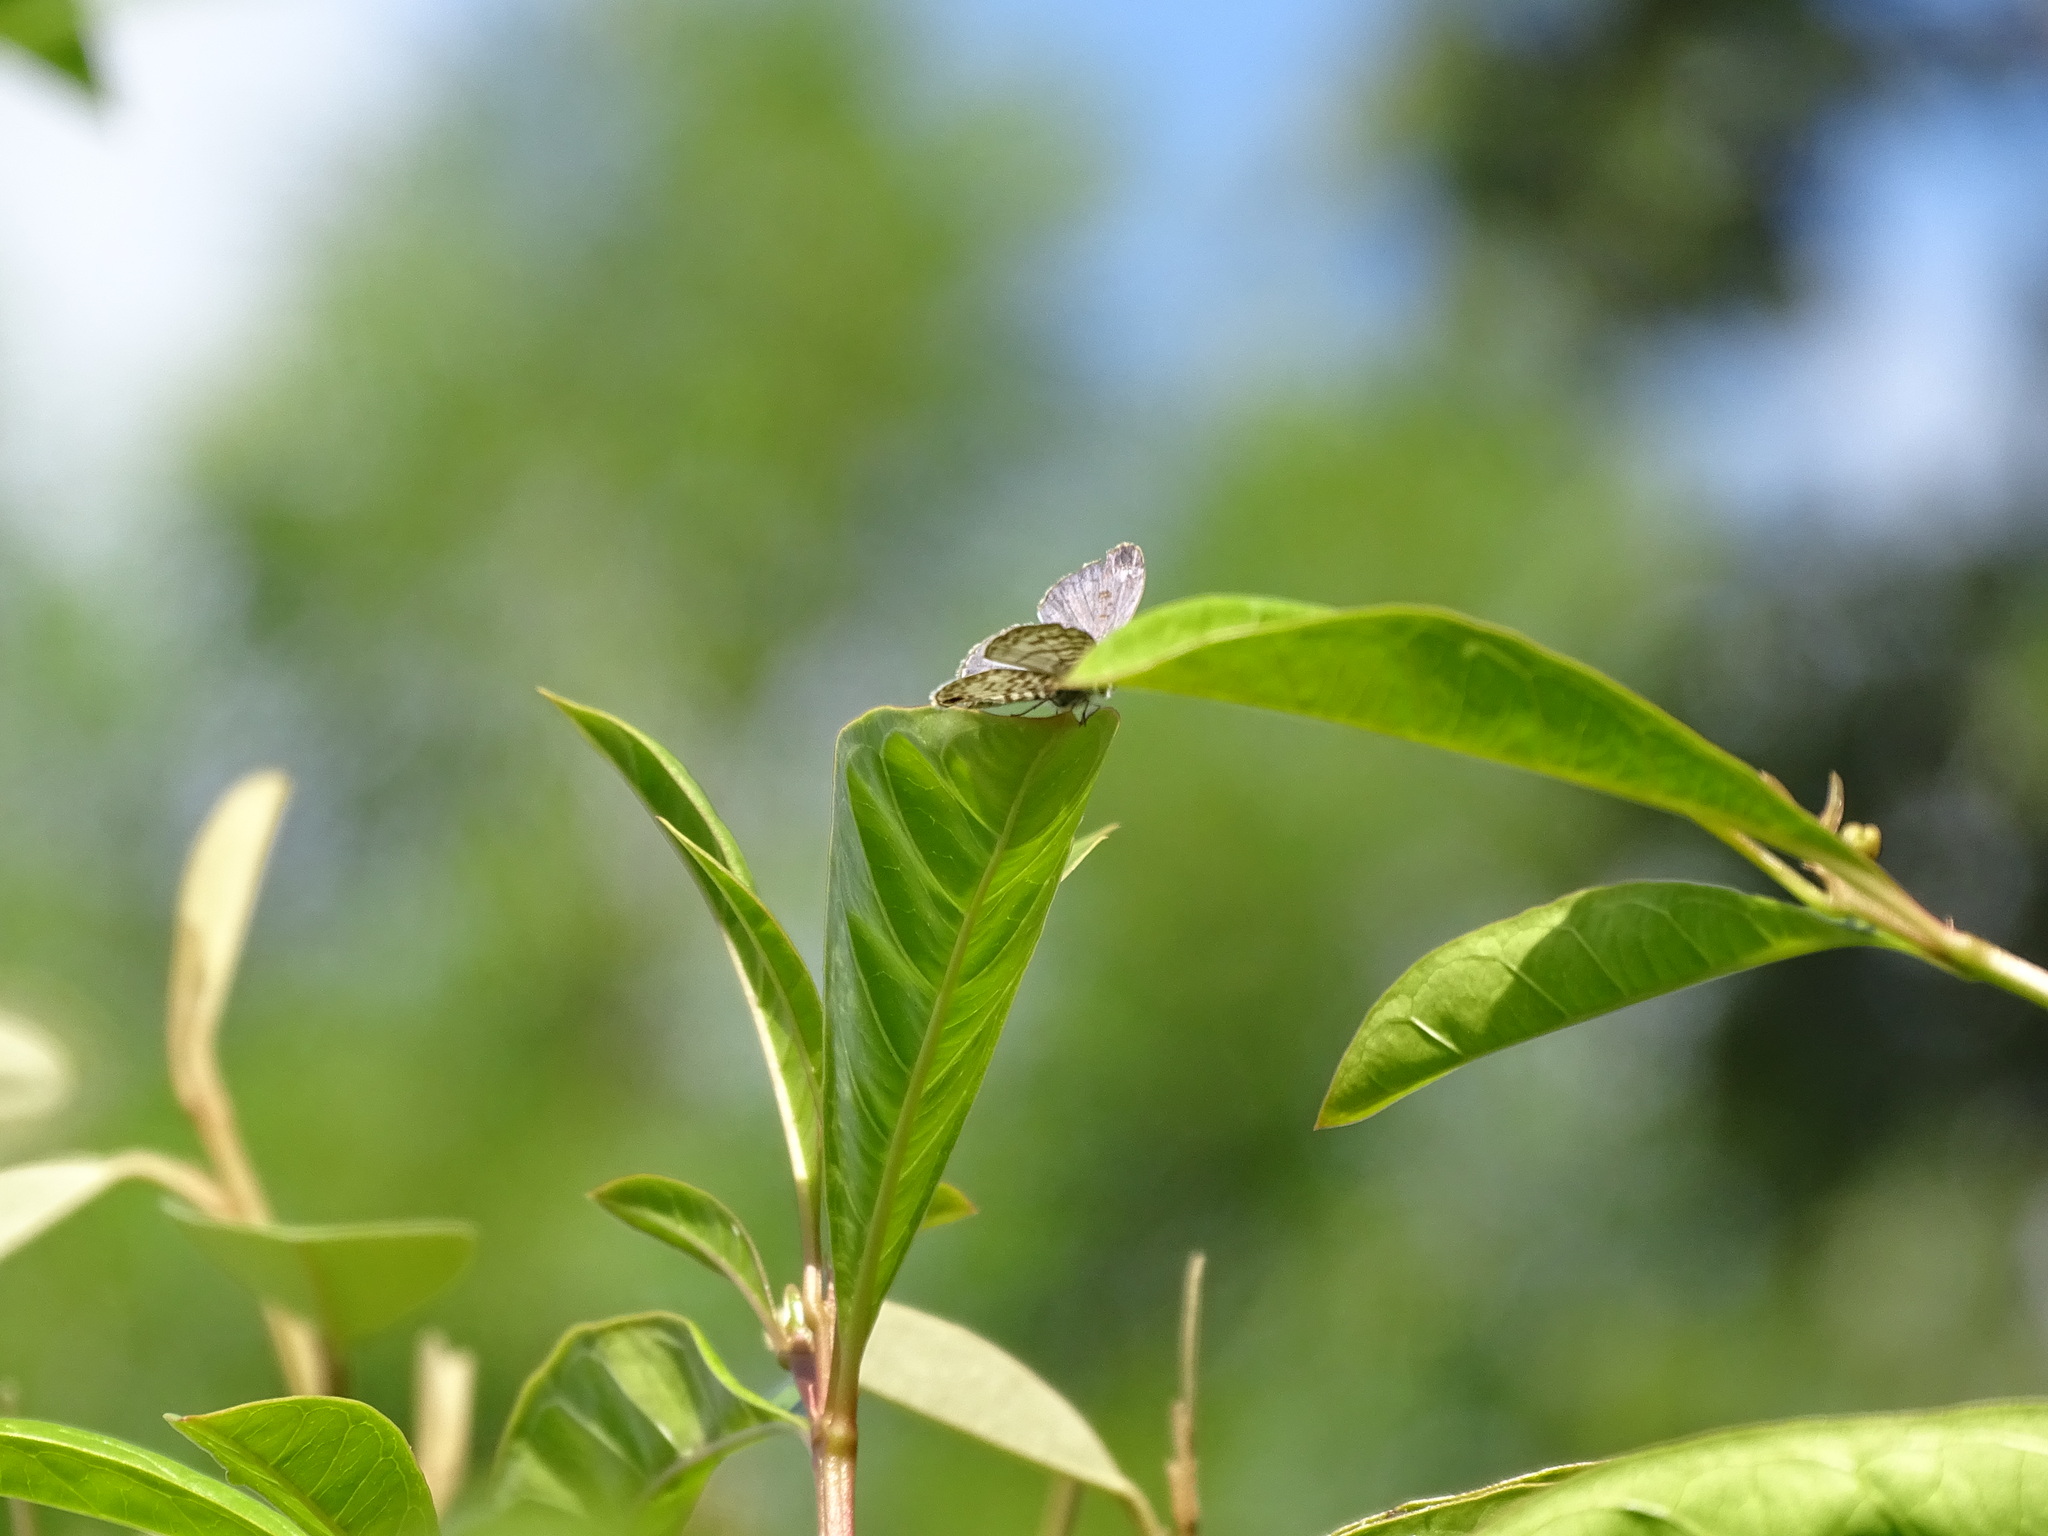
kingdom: Animalia
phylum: Arthropoda
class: Insecta
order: Lepidoptera
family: Lycaenidae
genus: Leptotes
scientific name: Leptotes cassius
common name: Cassius blue
